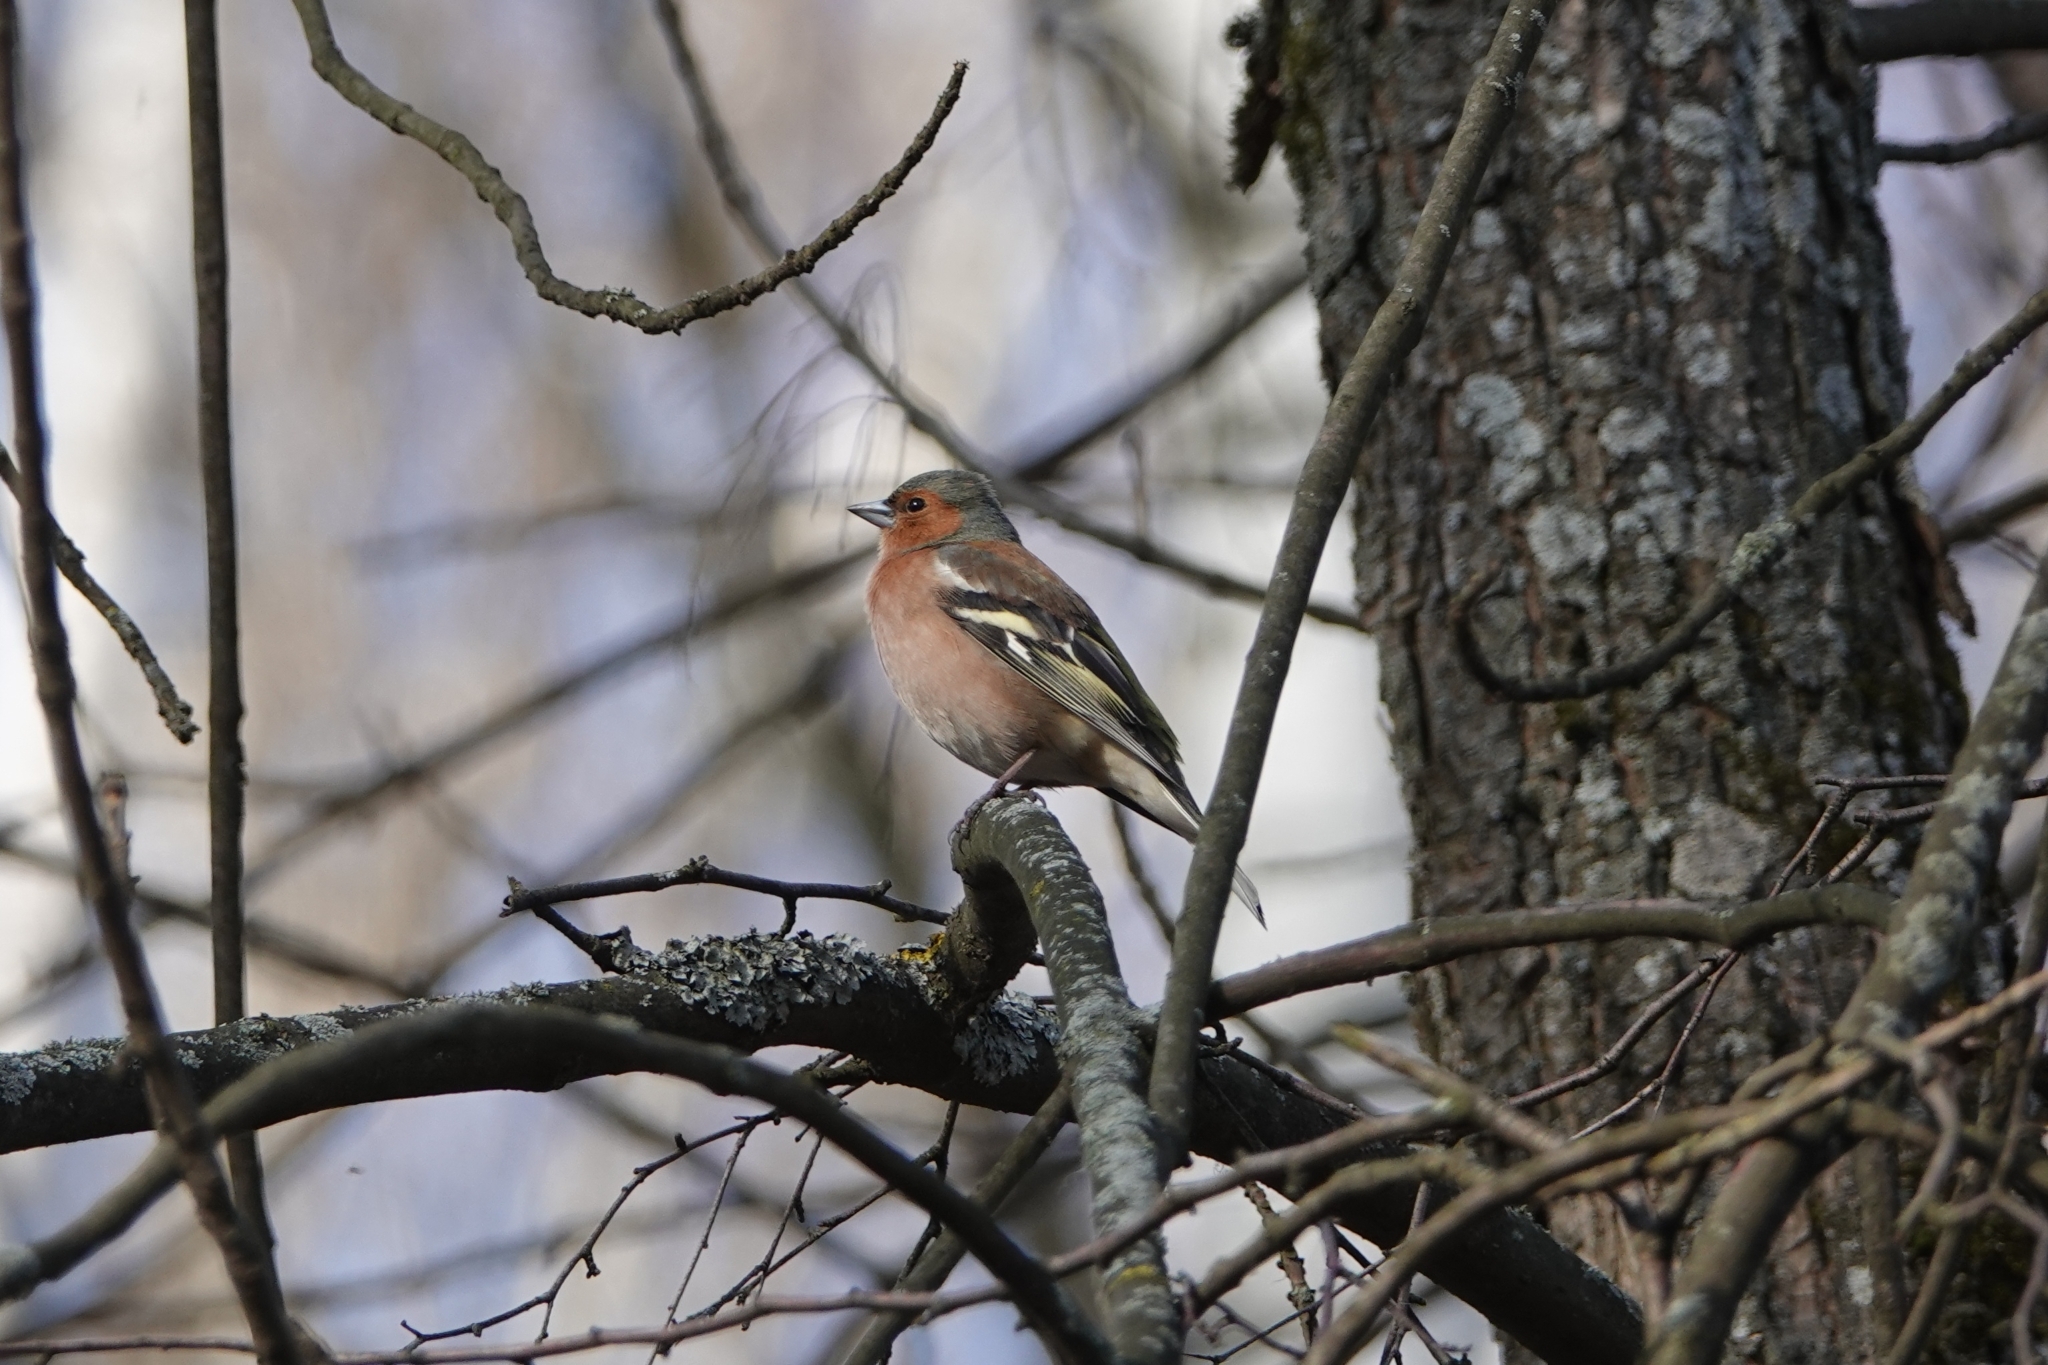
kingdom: Animalia
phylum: Chordata
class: Aves
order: Passeriformes
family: Fringillidae
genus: Fringilla
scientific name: Fringilla coelebs
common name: Common chaffinch
